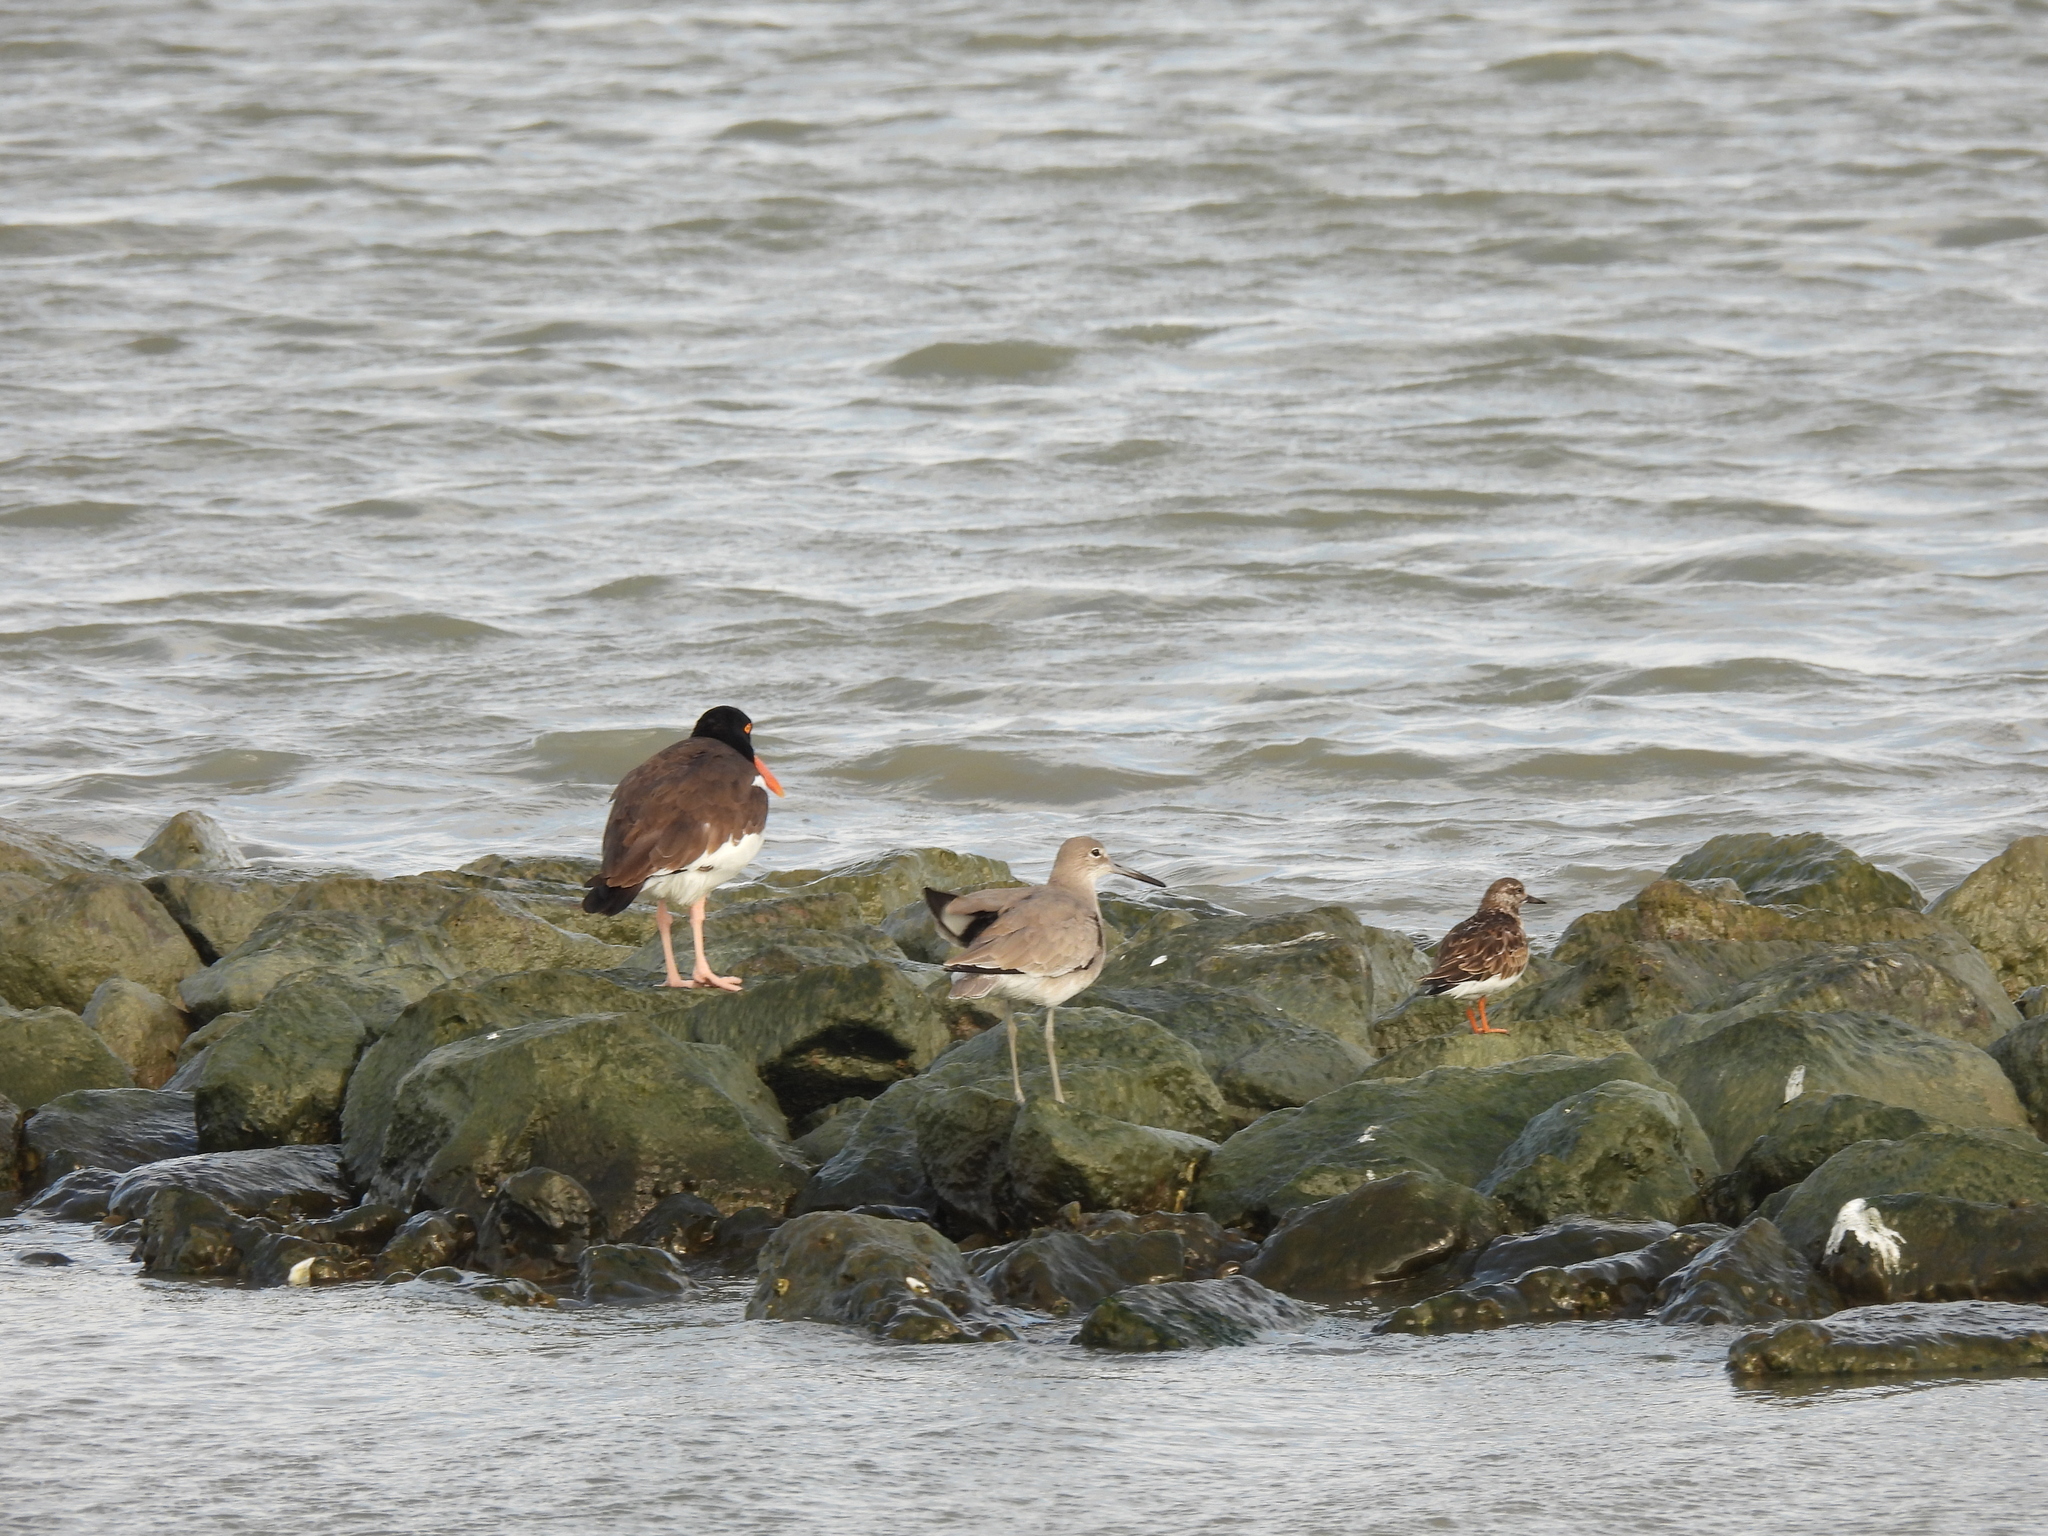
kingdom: Animalia
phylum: Chordata
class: Aves
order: Charadriiformes
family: Scolopacidae
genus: Arenaria
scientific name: Arenaria interpres
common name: Ruddy turnstone
